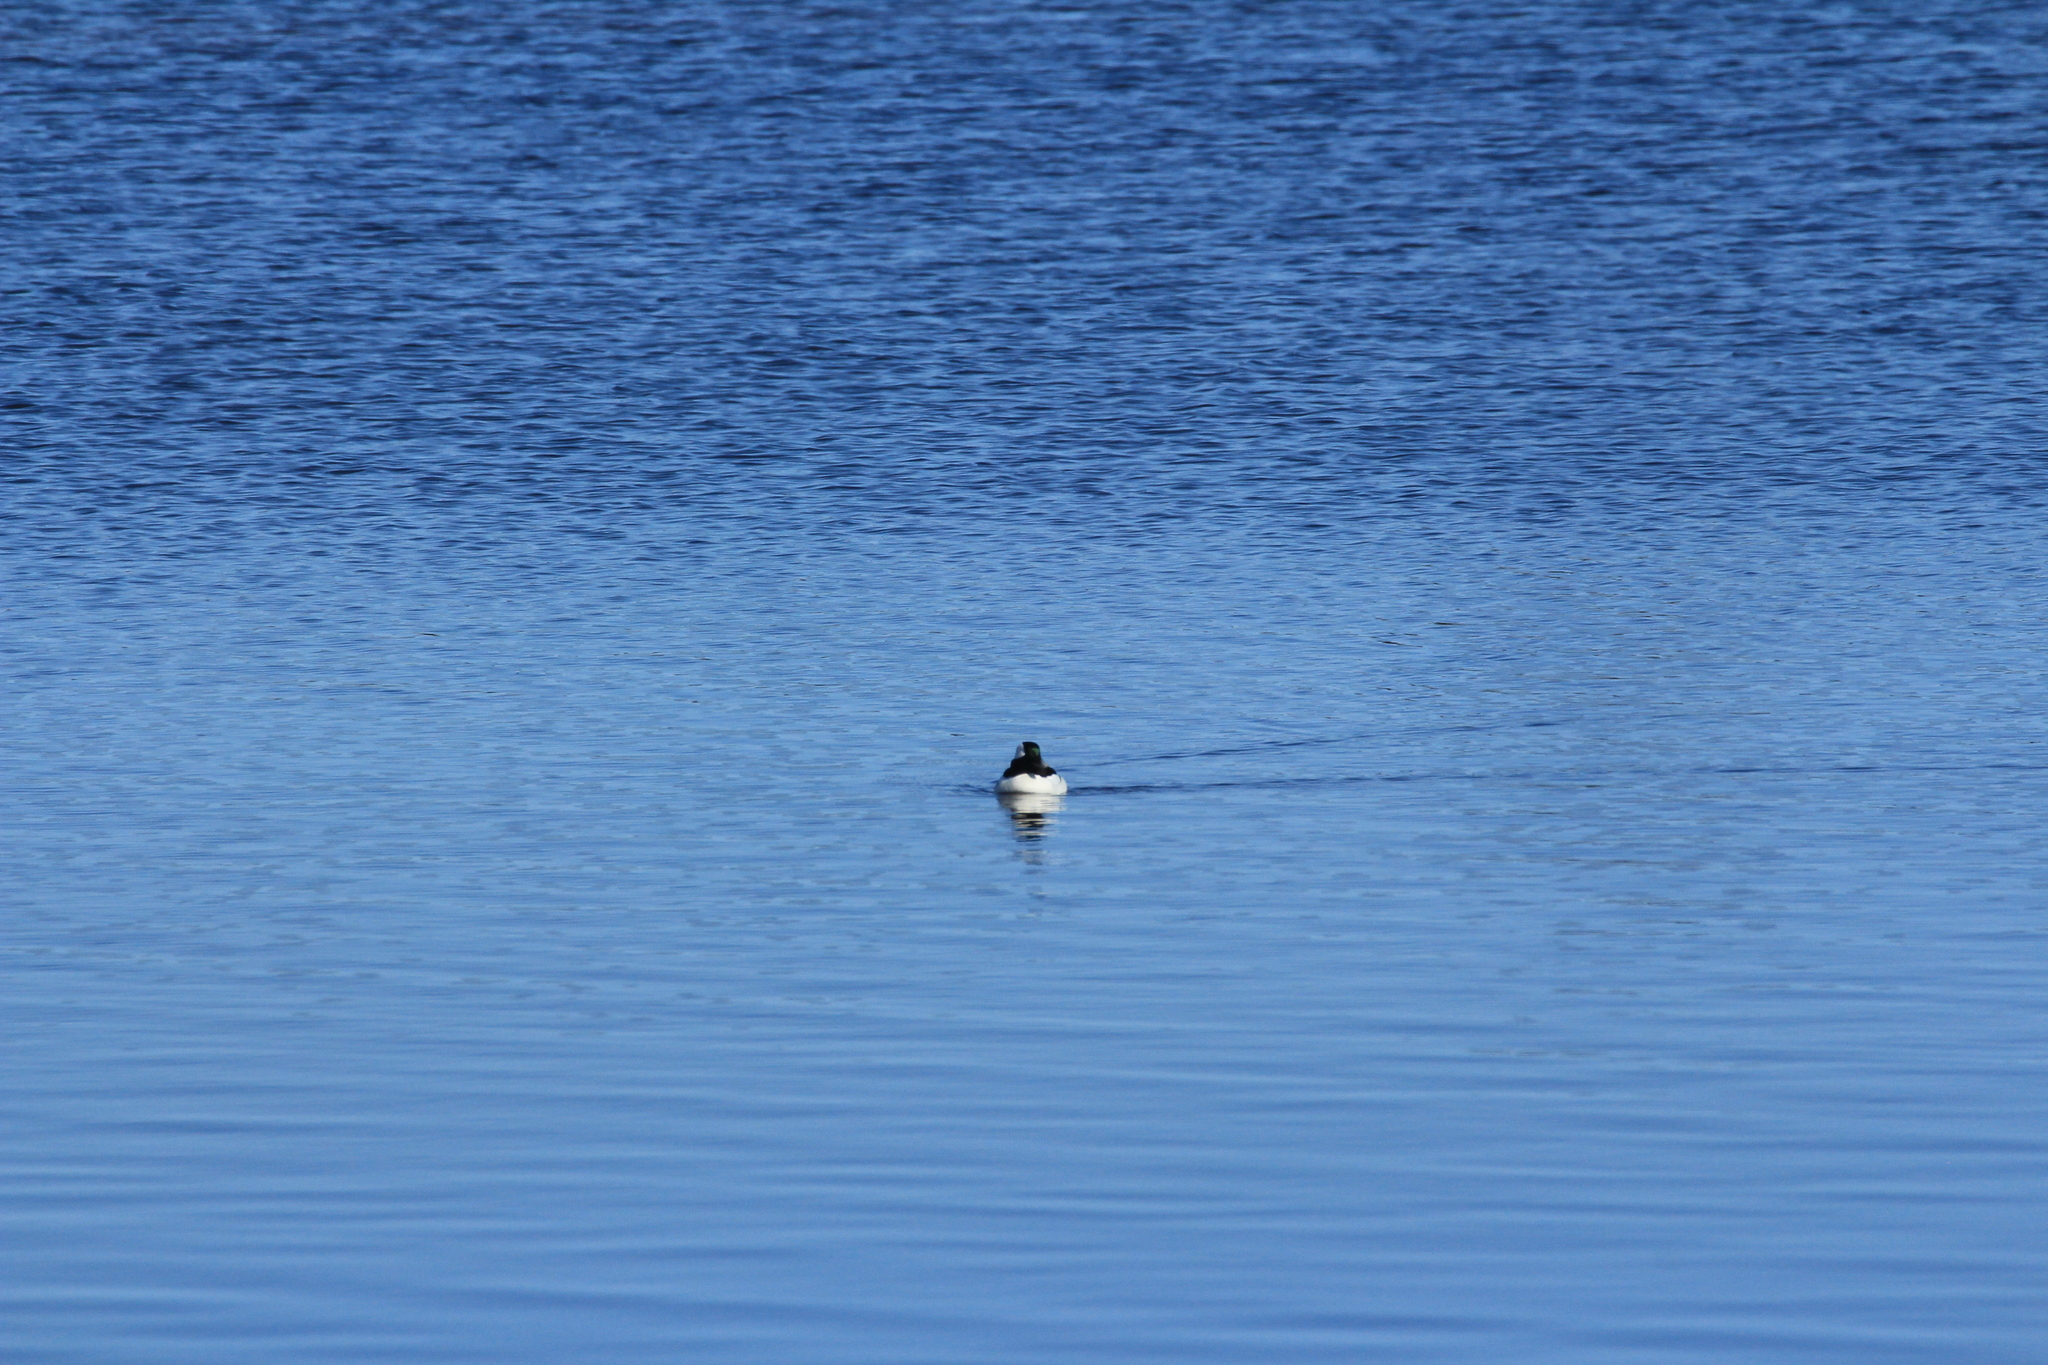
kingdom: Animalia
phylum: Chordata
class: Aves
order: Anseriformes
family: Anatidae
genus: Bucephala
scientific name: Bucephala albeola
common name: Bufflehead
